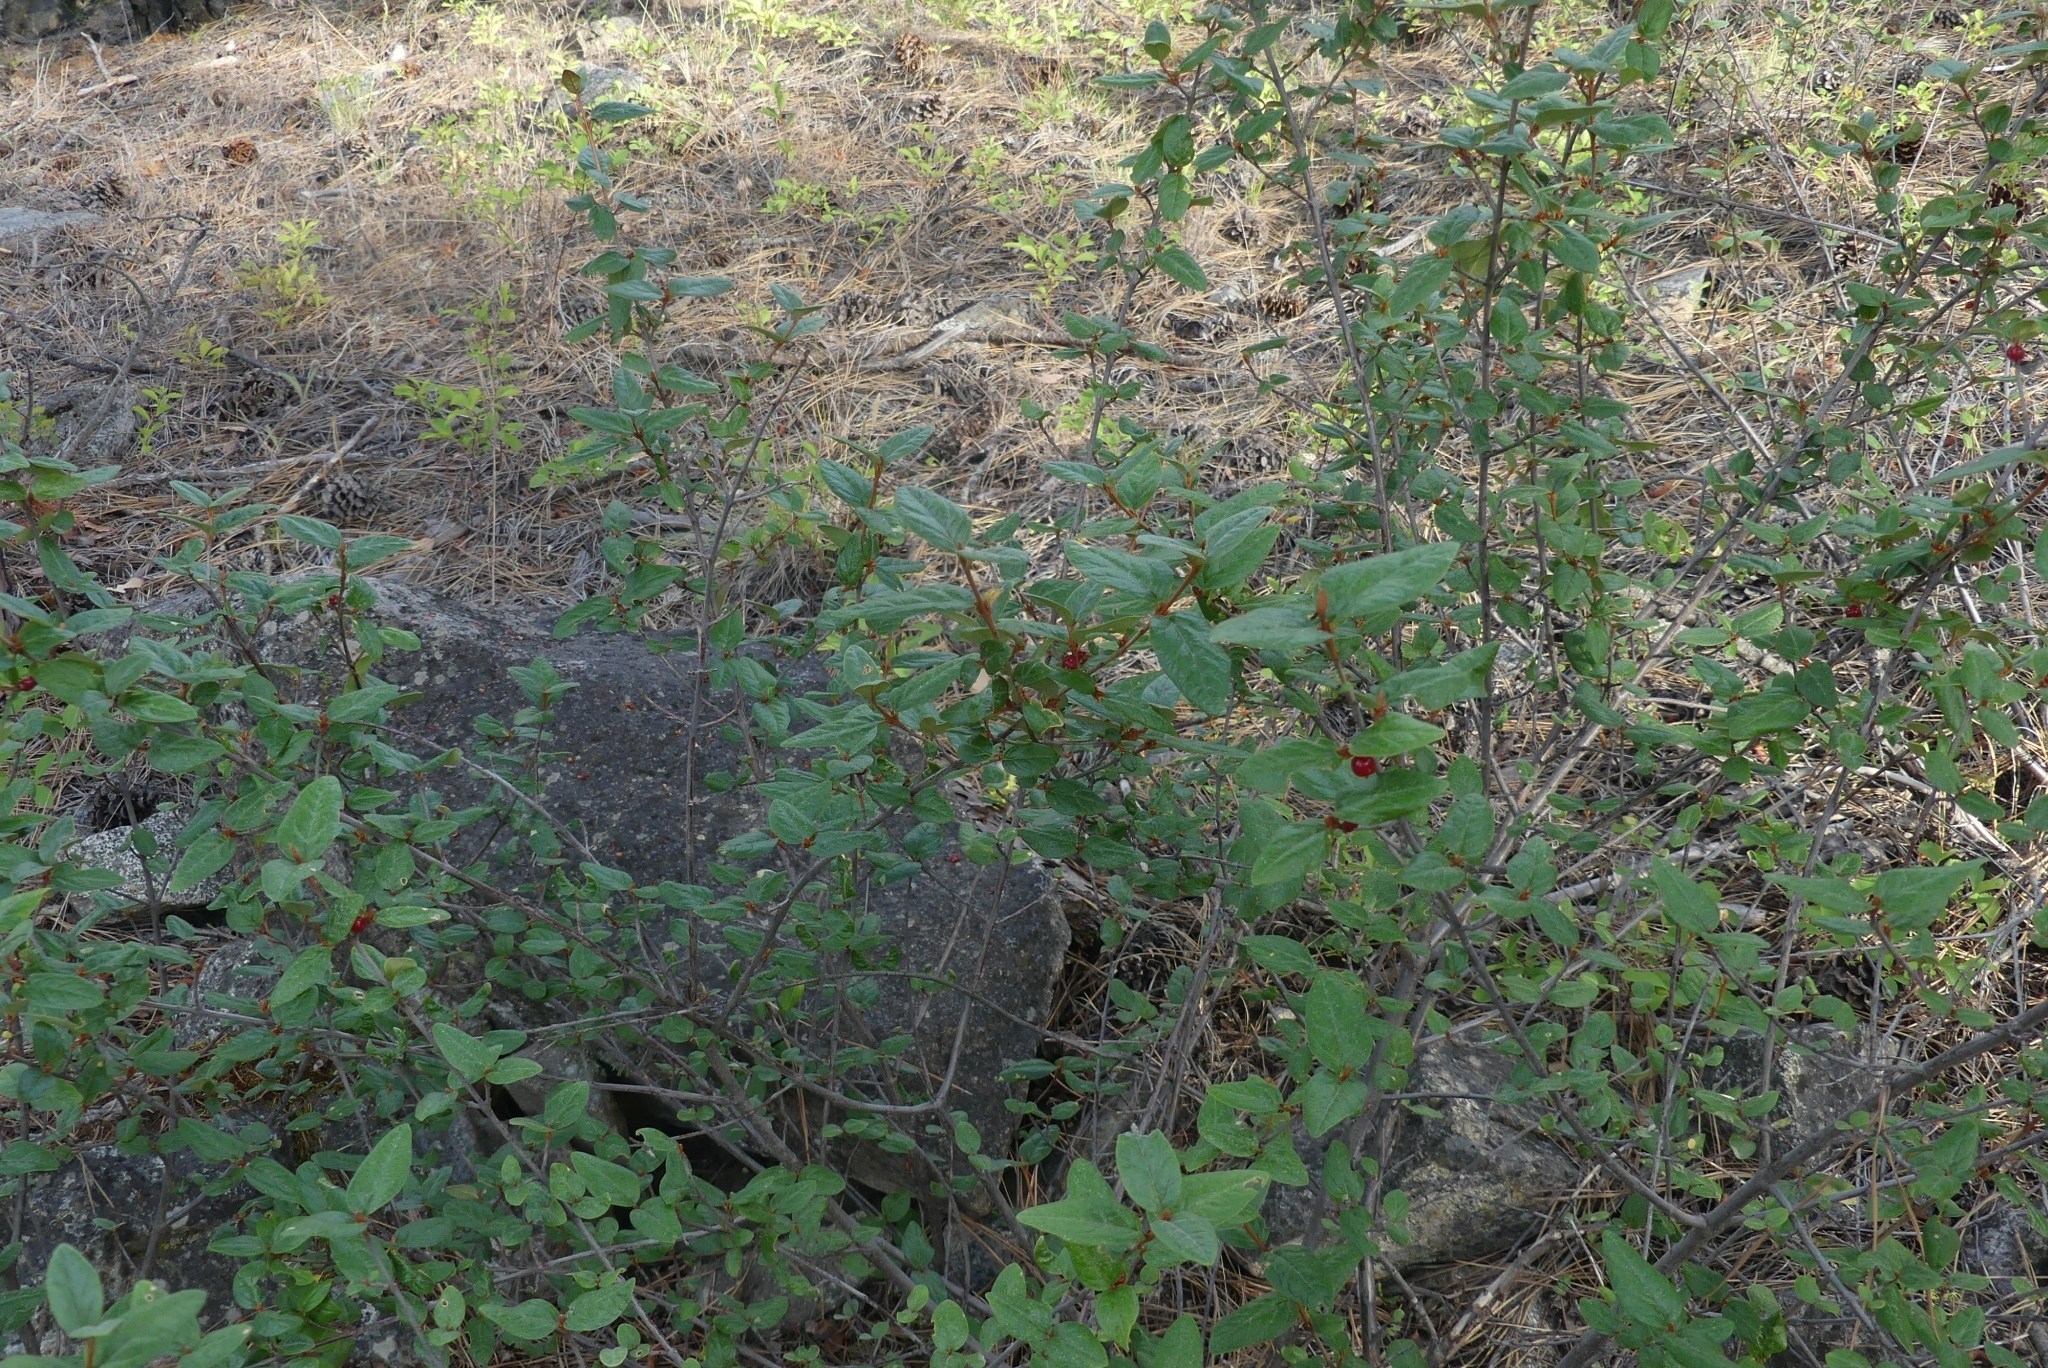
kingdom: Plantae
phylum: Tracheophyta
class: Magnoliopsida
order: Rosales
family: Elaeagnaceae
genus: Shepherdia
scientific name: Shepherdia canadensis
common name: Soapberry
